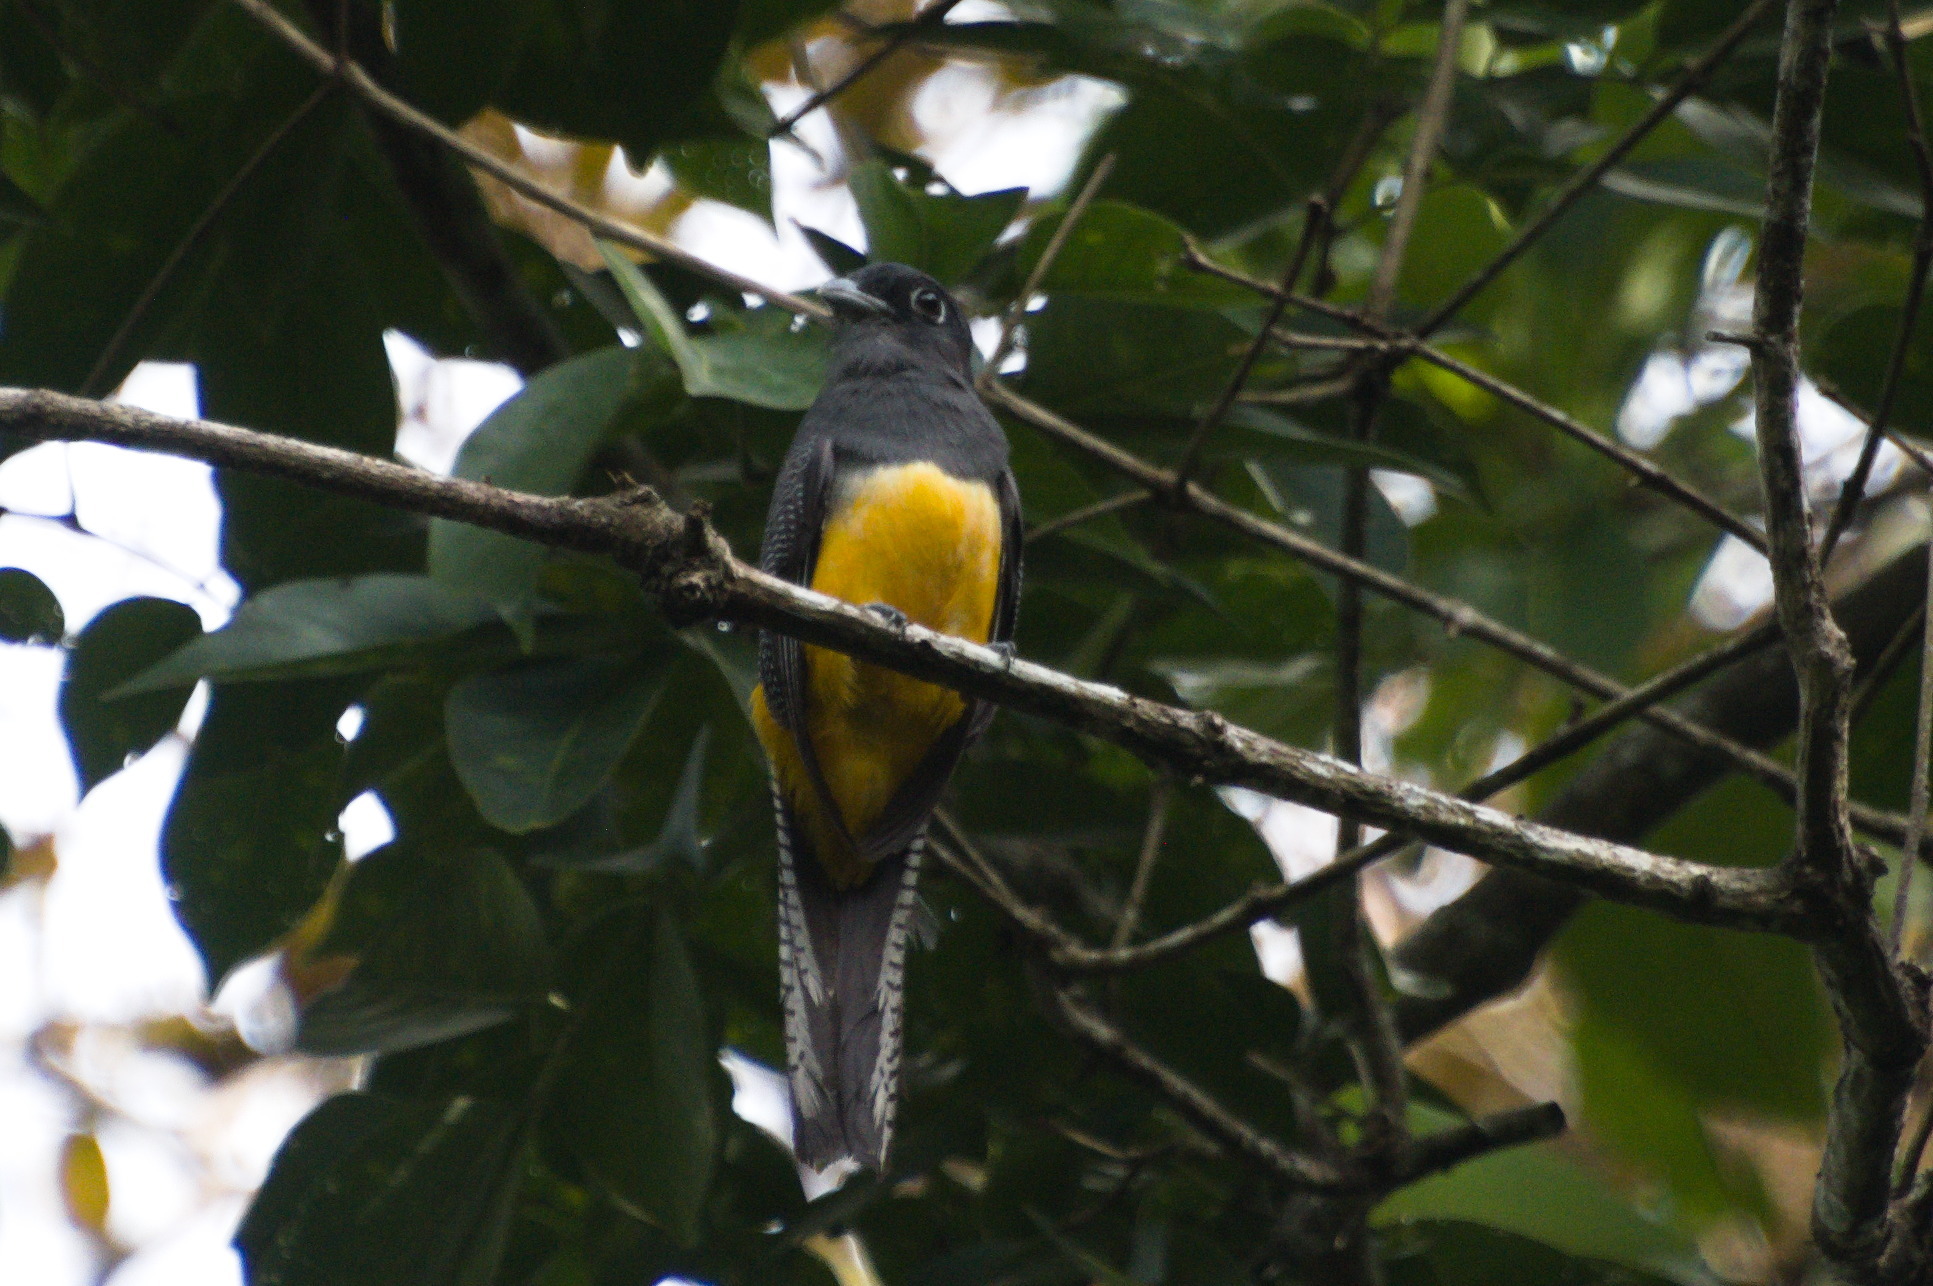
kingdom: Animalia
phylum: Chordata
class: Aves
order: Trogoniformes
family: Trogonidae
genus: Trogon
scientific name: Trogon caligatus
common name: Gartered trogon
